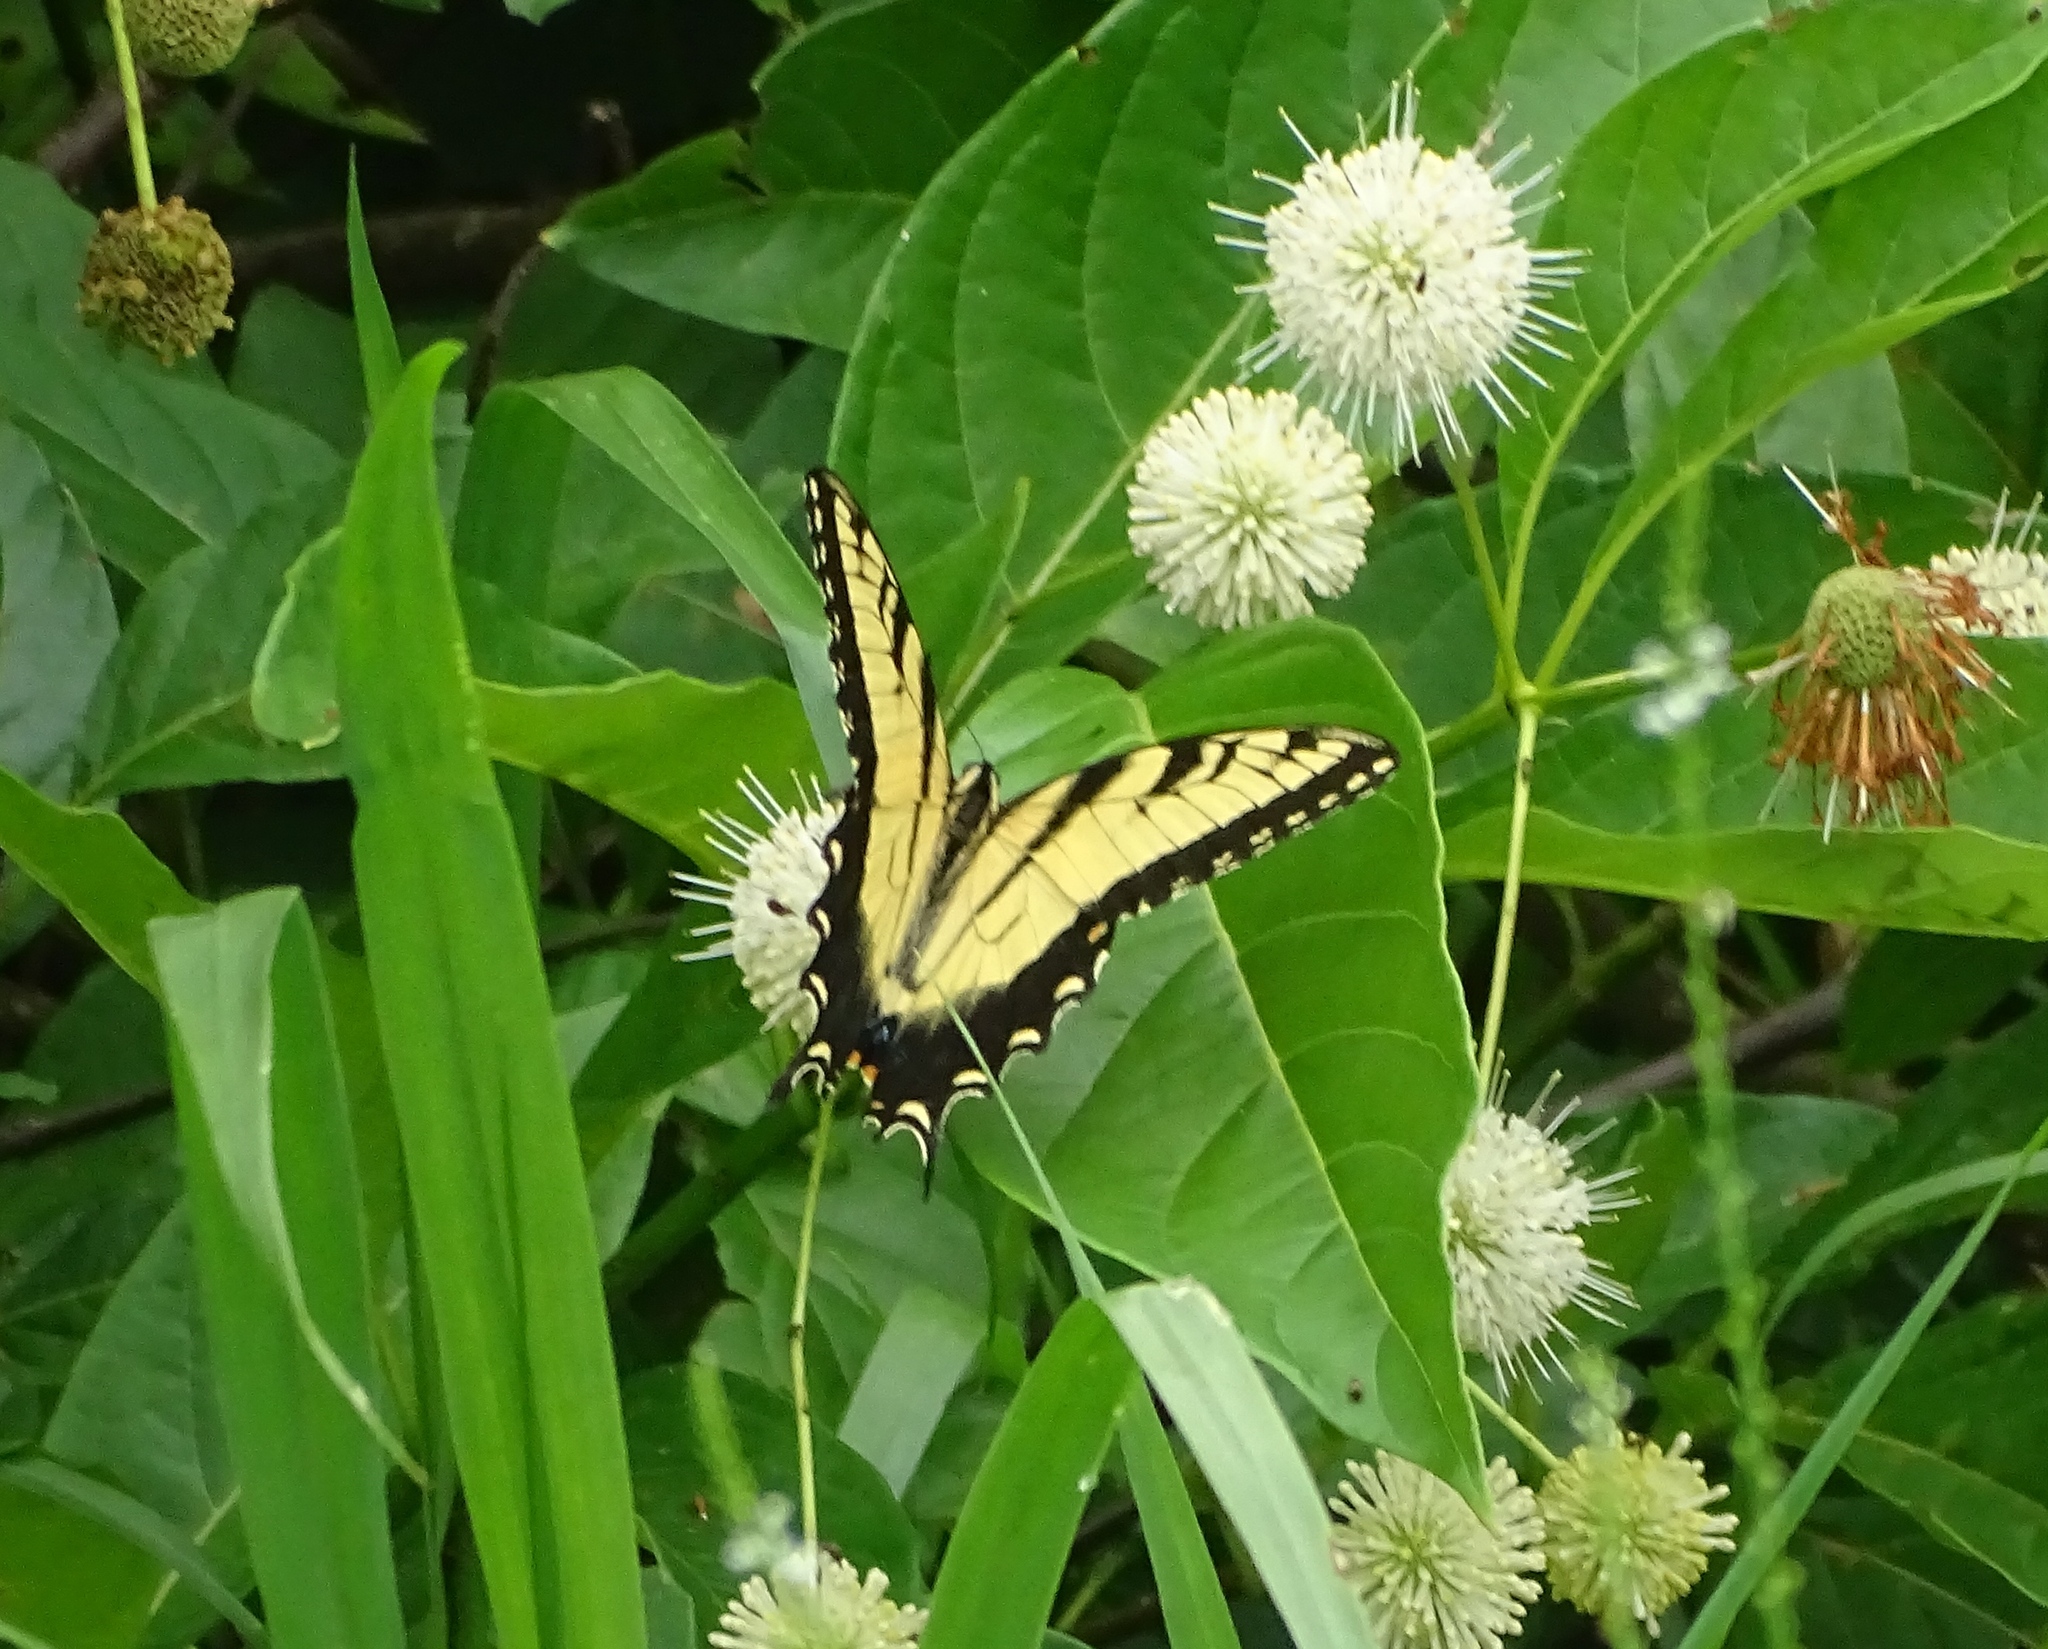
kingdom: Animalia
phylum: Arthropoda
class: Insecta
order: Lepidoptera
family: Papilionidae
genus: Papilio
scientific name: Papilio glaucus
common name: Tiger swallowtail
